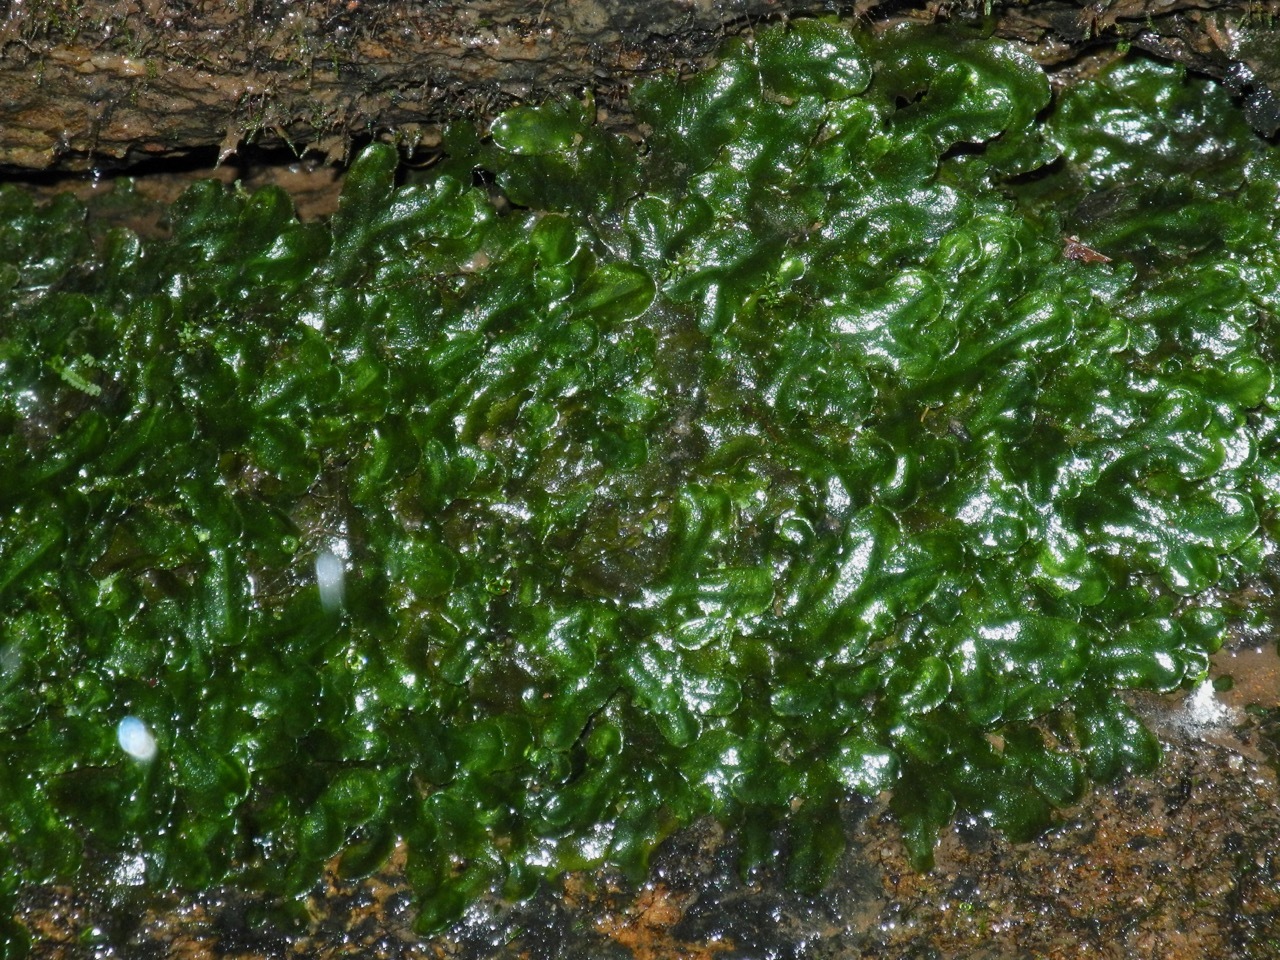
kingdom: Plantae
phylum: Marchantiophyta
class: Jungermanniopsida
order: Pelliales
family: Pelliaceae
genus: Pellia
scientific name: Pellia epiphylla
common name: Common pellia
